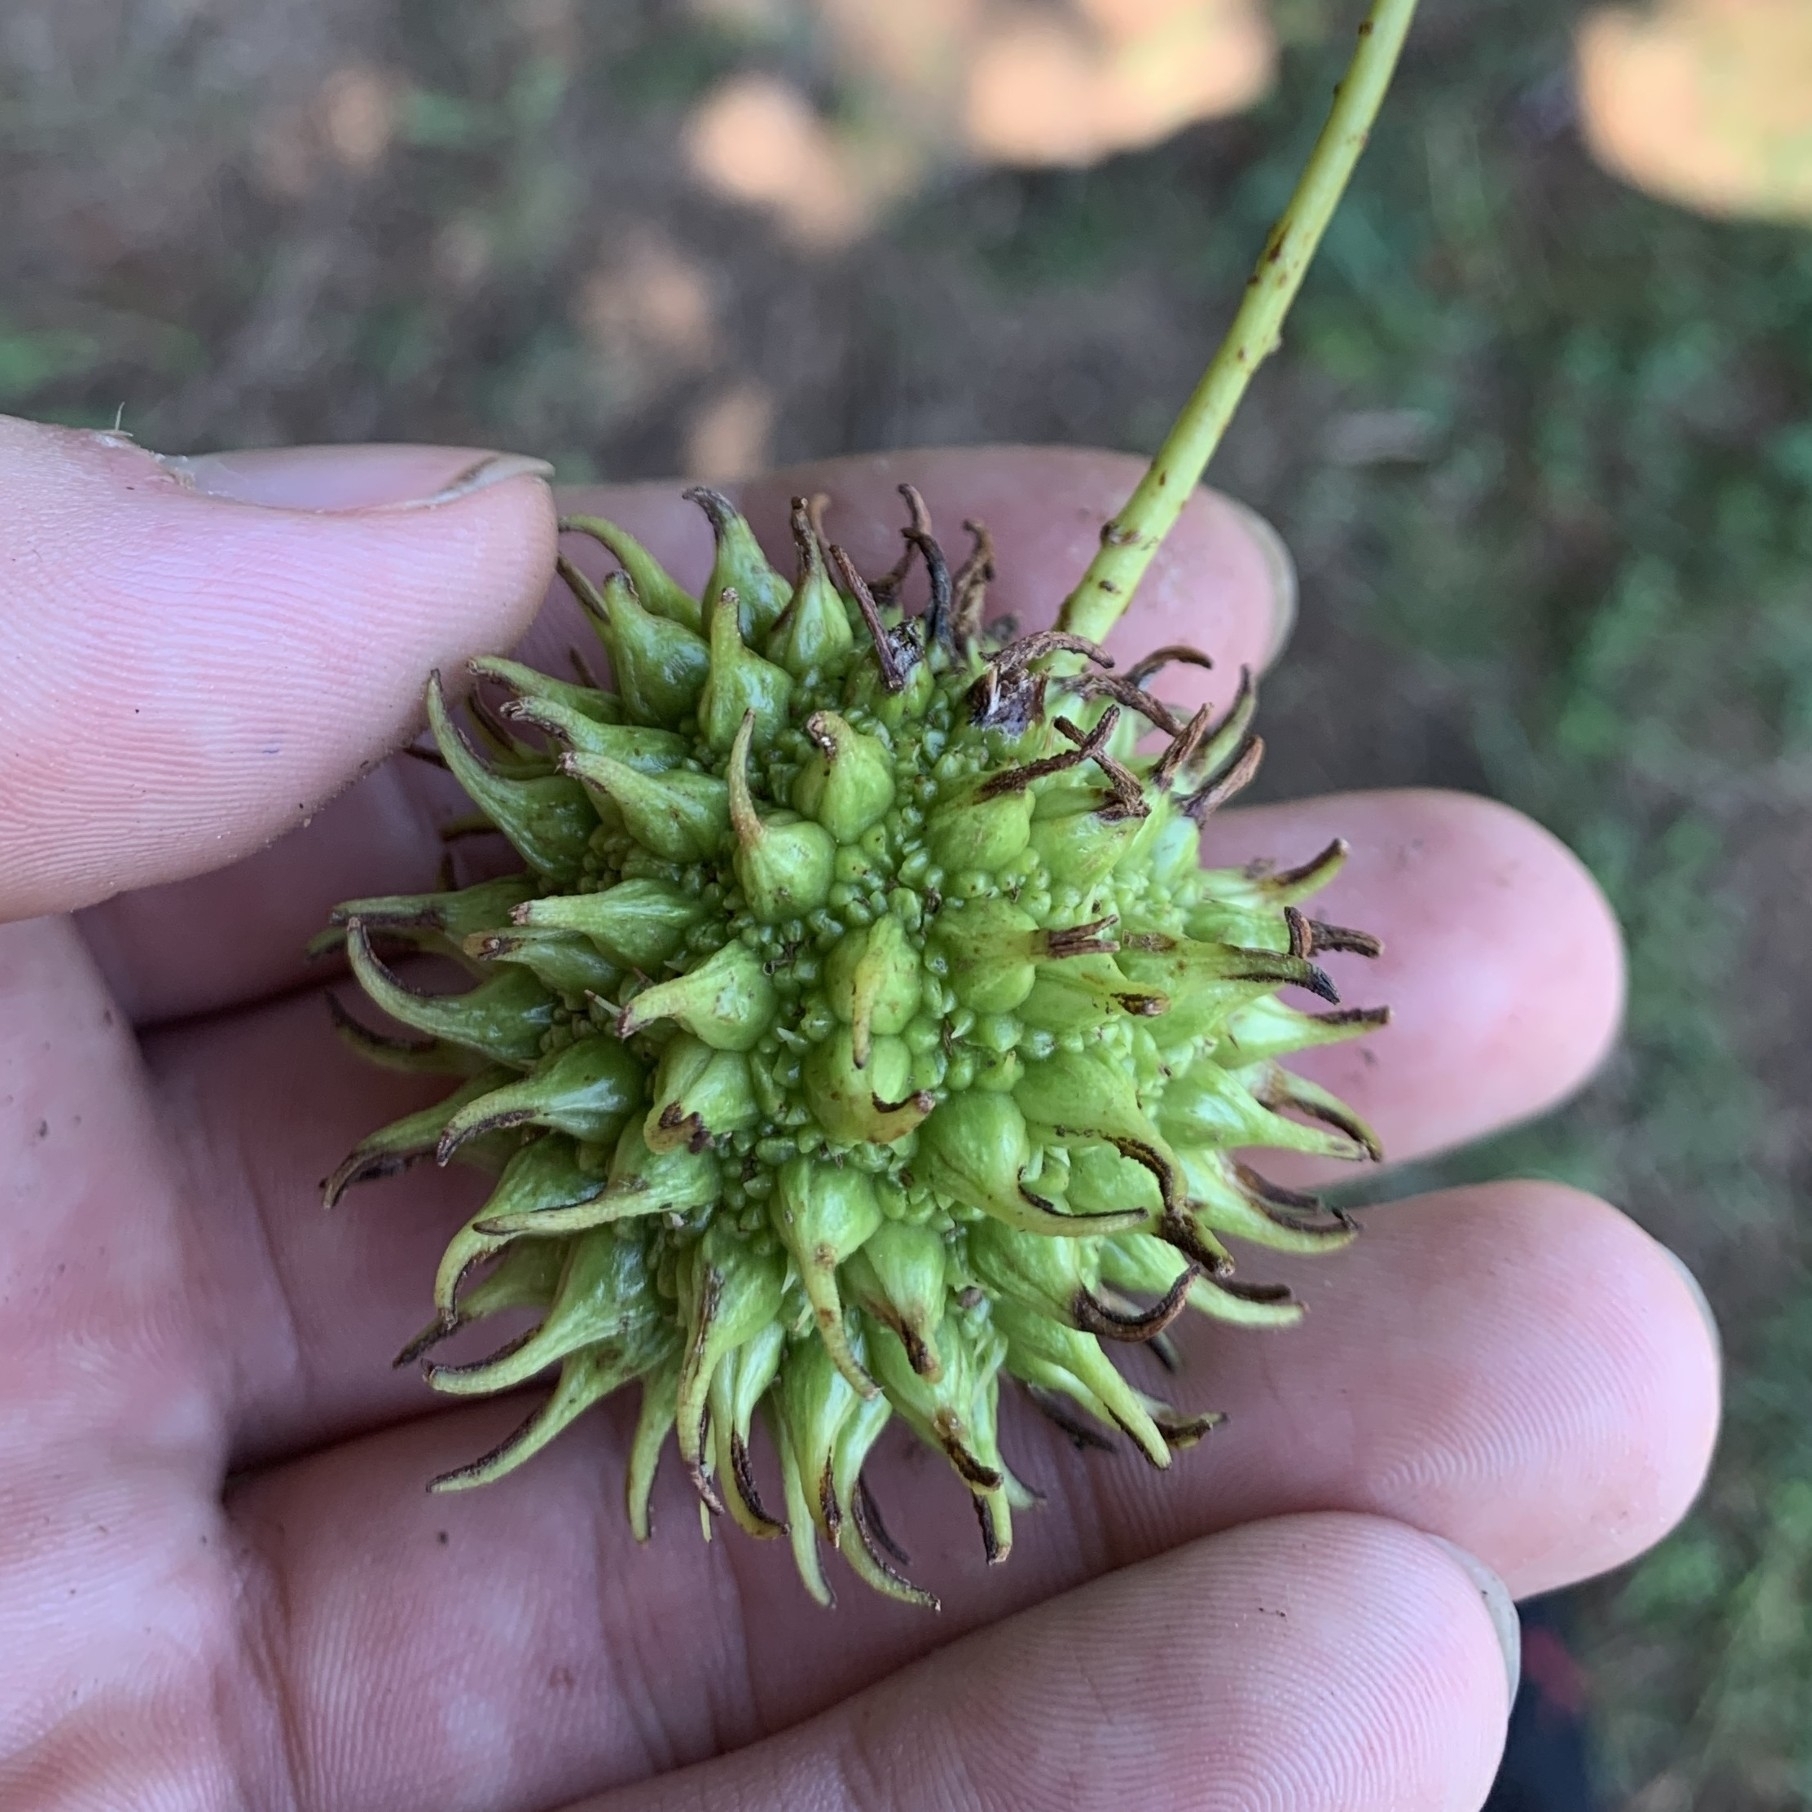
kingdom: Plantae
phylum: Tracheophyta
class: Magnoliopsida
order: Saxifragales
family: Altingiaceae
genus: Liquidambar
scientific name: Liquidambar styraciflua
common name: Sweet gum
